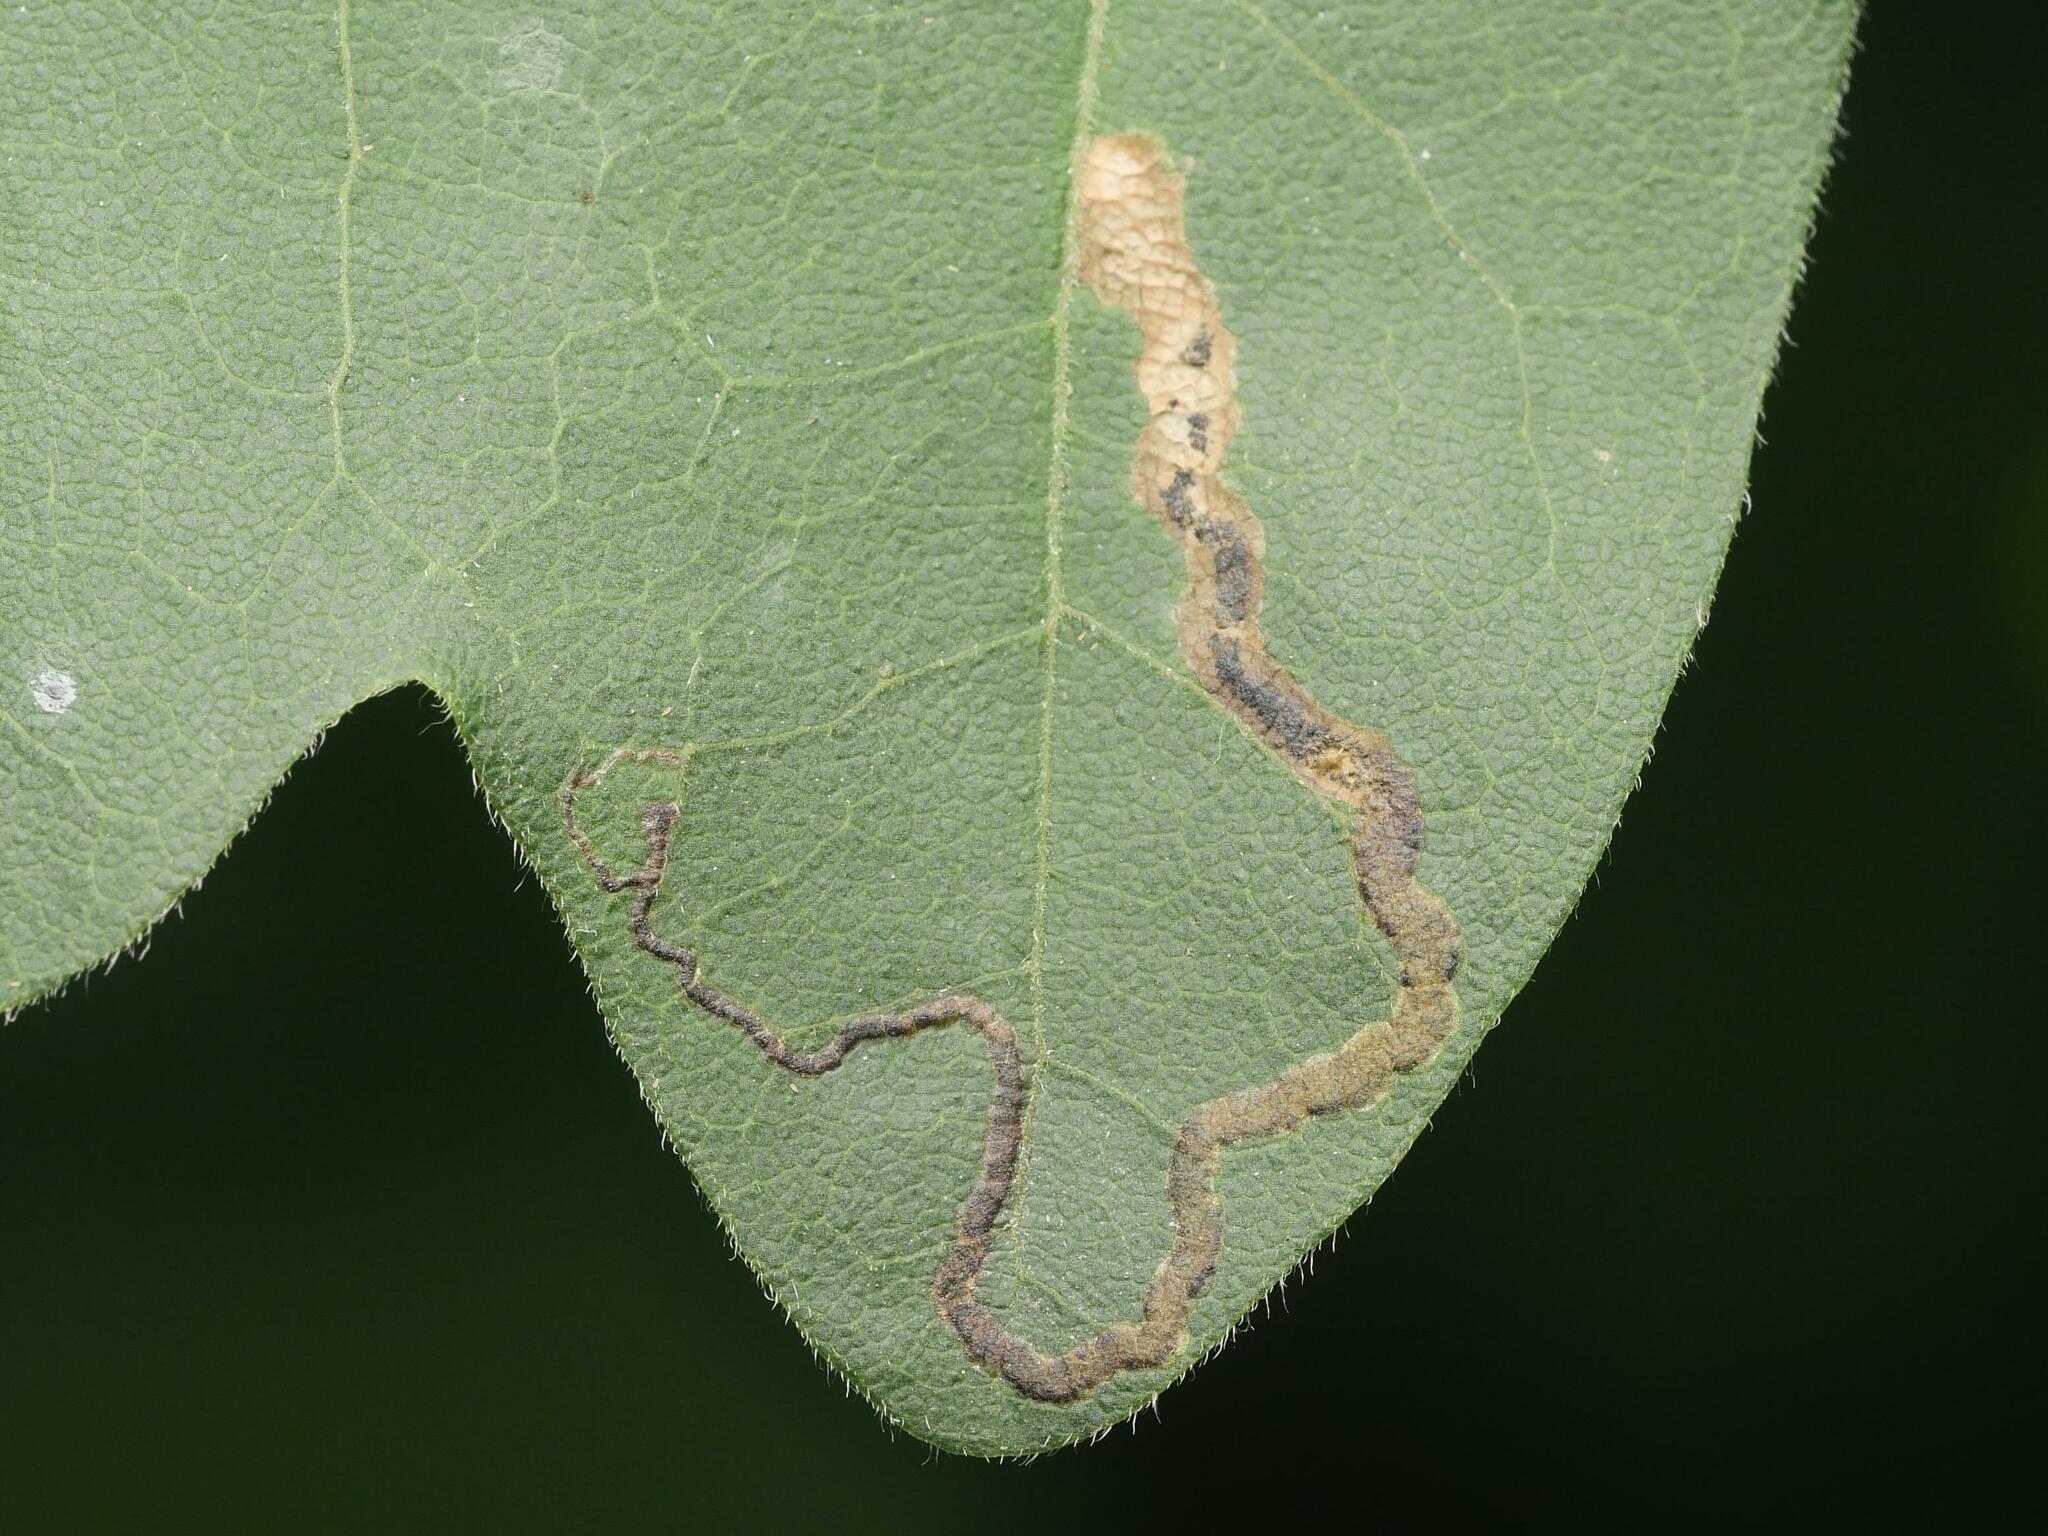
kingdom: Animalia
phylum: Arthropoda
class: Insecta
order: Lepidoptera
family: Nepticulidae
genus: Stigmella
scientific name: Stigmella aceris
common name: Scarce maple pigmy
